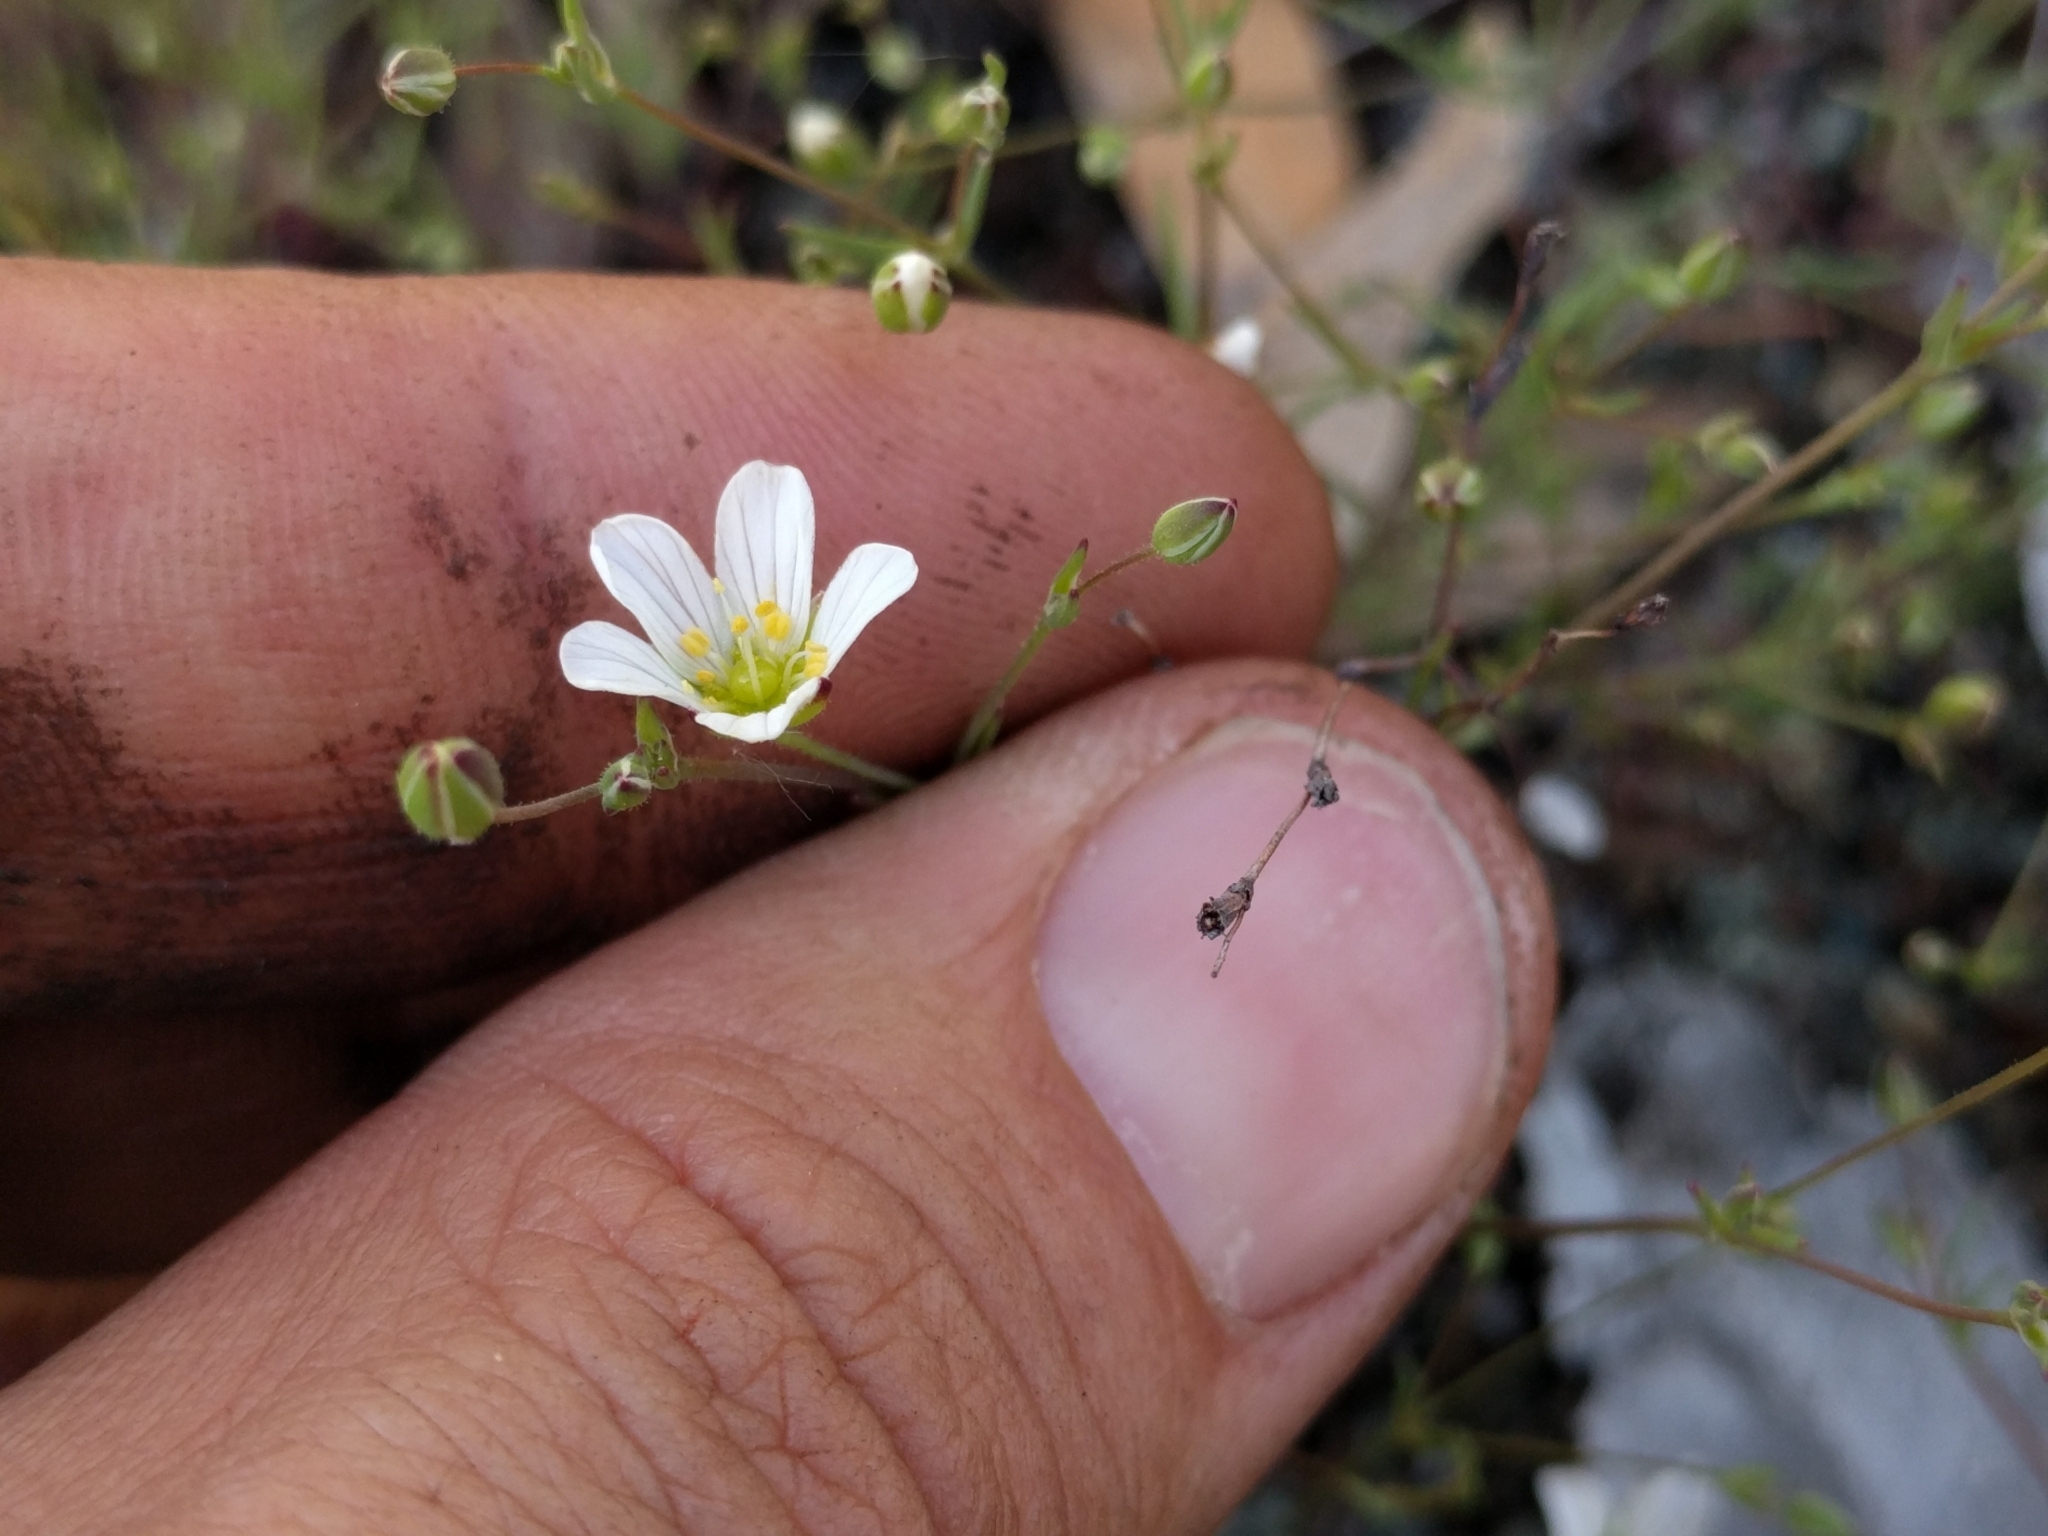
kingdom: Plantae
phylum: Tracheophyta
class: Magnoliopsida
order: Caryophyllales
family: Caryophyllaceae
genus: Sabulina
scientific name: Sabulina douglasii
